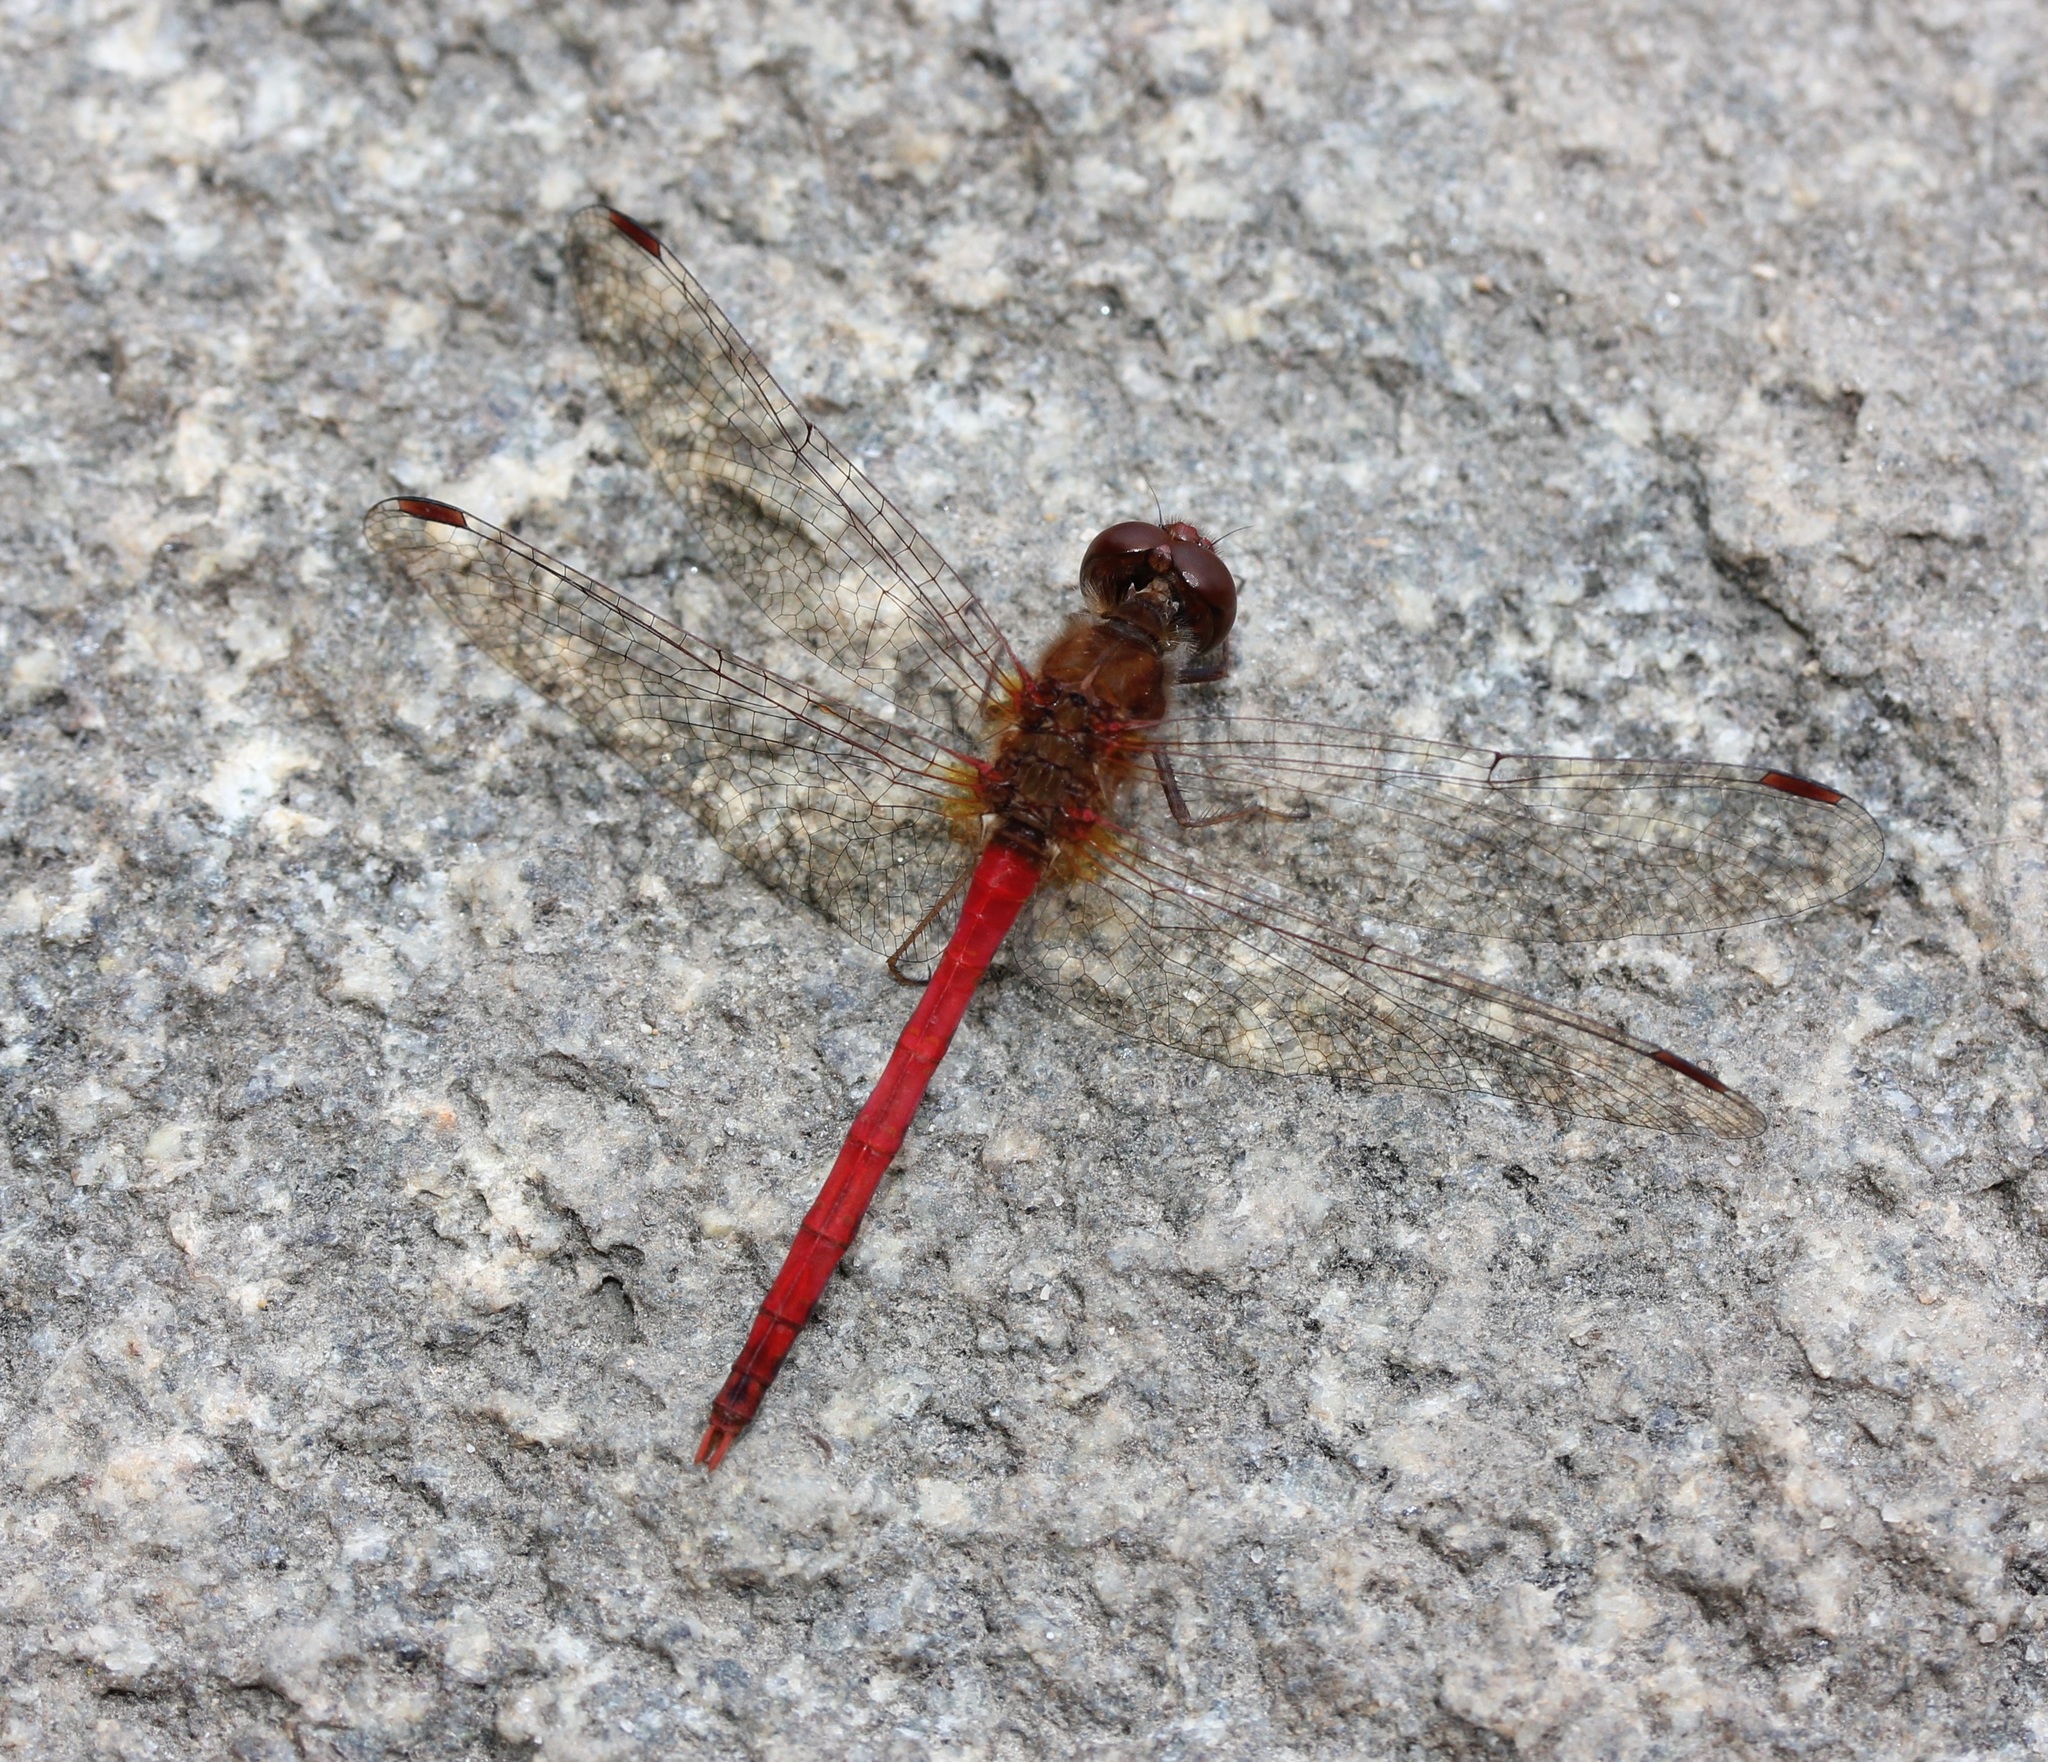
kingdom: Animalia
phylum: Arthropoda
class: Insecta
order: Odonata
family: Libellulidae
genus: Sympetrum
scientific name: Sympetrum vicinum
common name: Autumn meadowhawk
